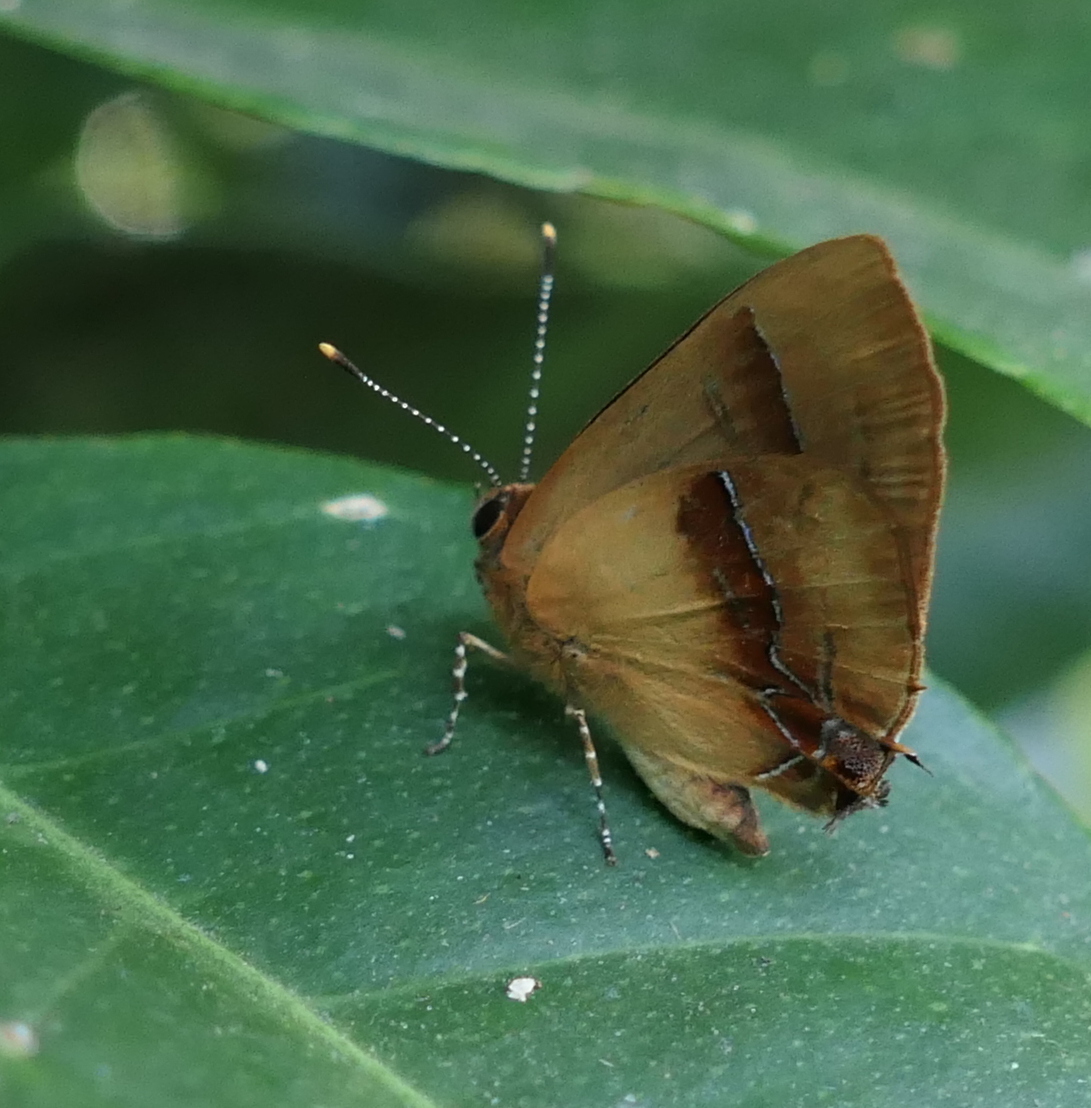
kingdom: Animalia
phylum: Arthropoda
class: Insecta
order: Lepidoptera
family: Lycaenidae
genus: Thecla
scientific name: Thecla demonassa
